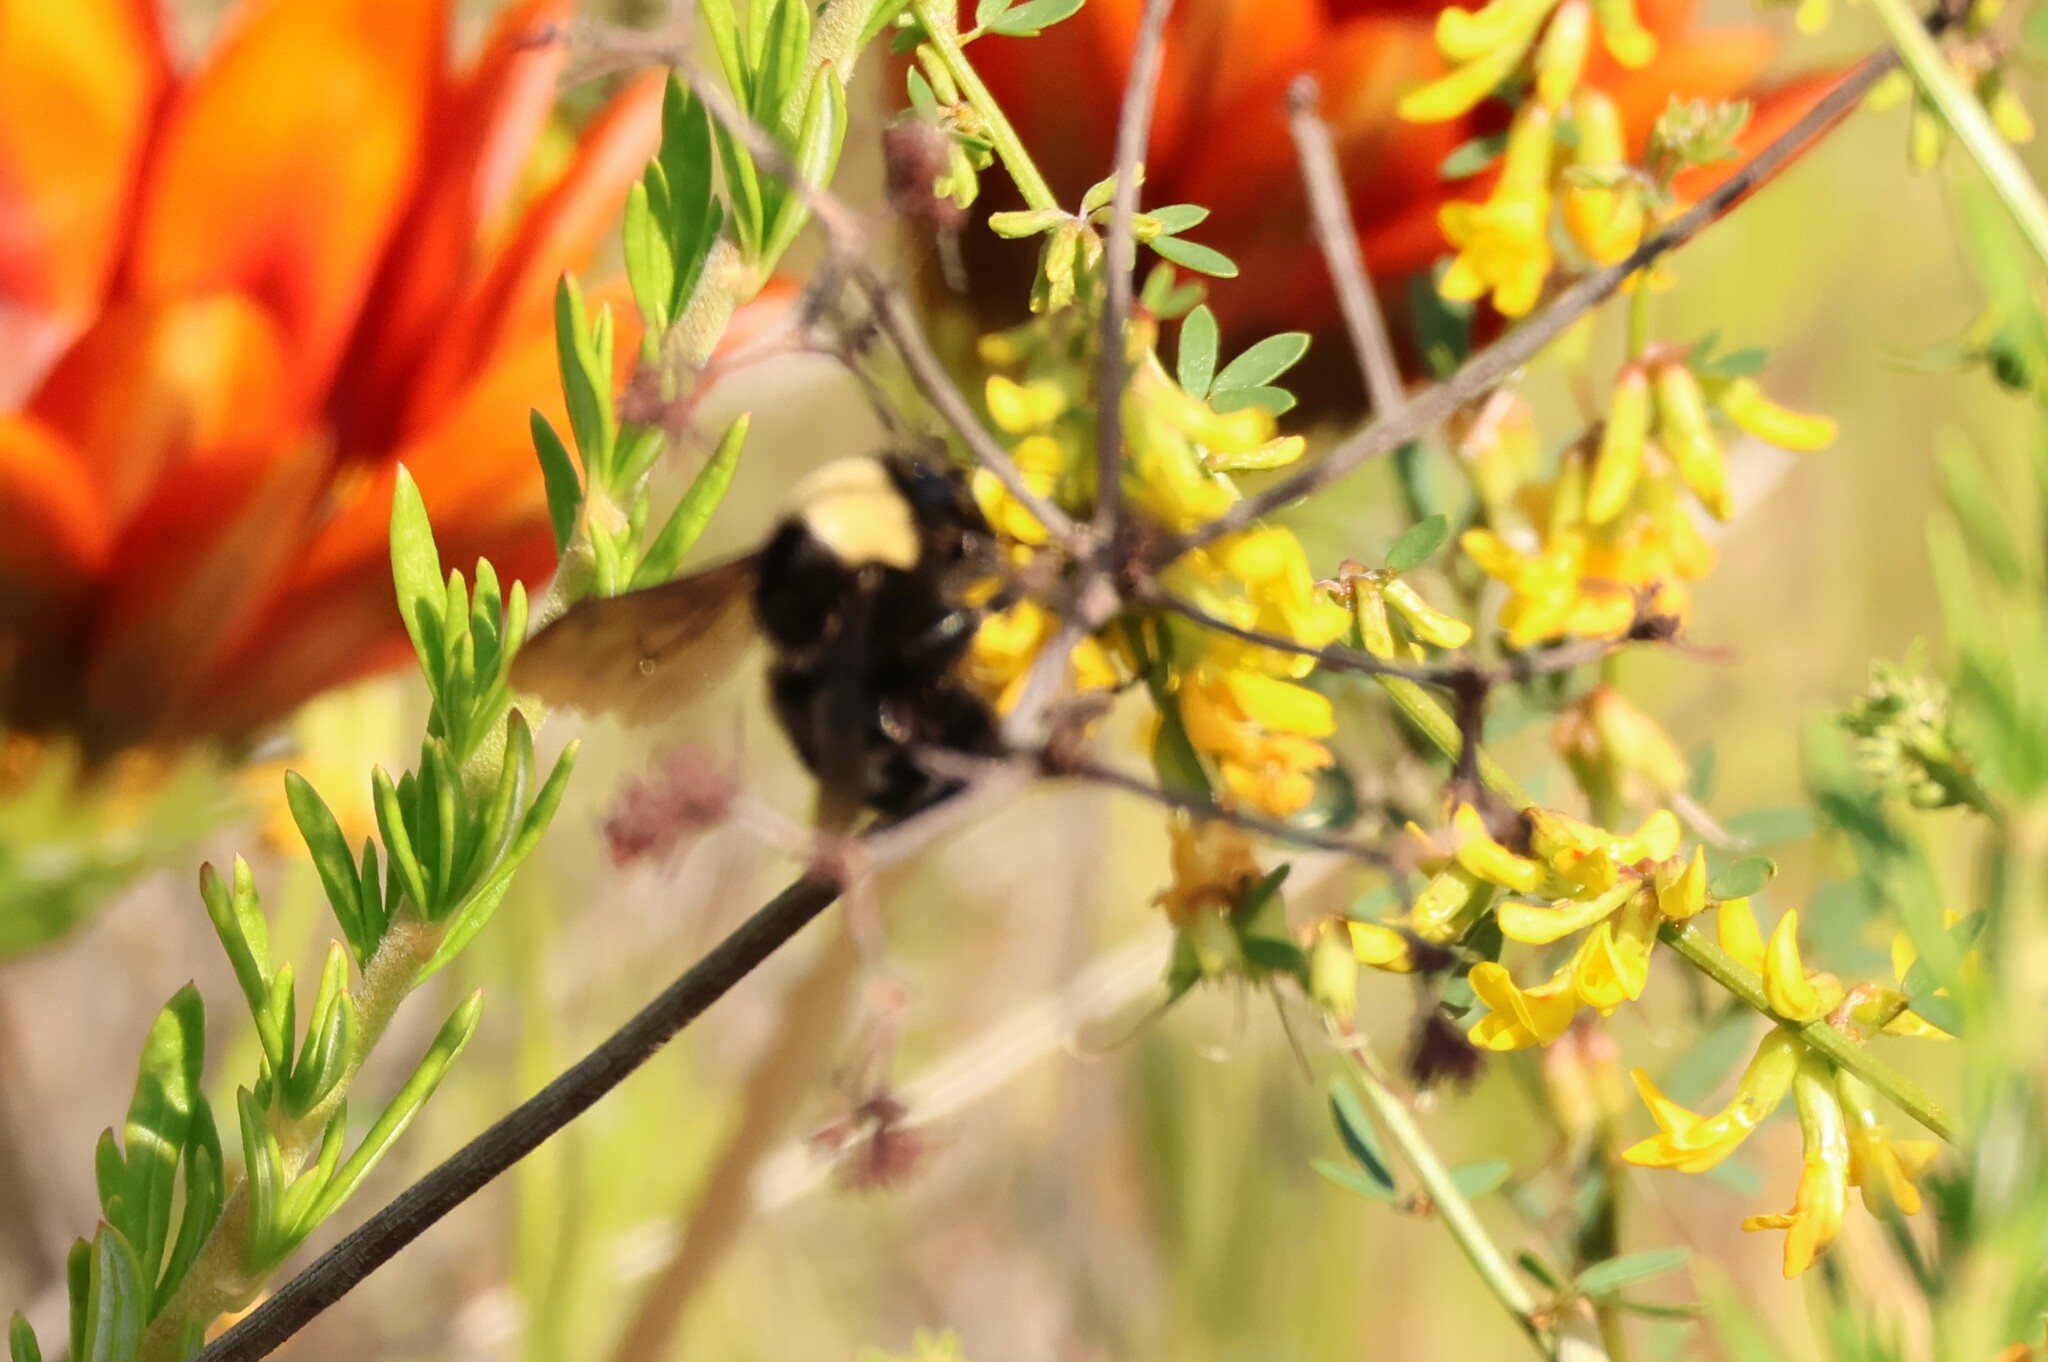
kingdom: Animalia
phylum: Arthropoda
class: Insecta
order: Hymenoptera
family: Apidae
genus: Bombus
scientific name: Bombus californicus
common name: California bumble bee
